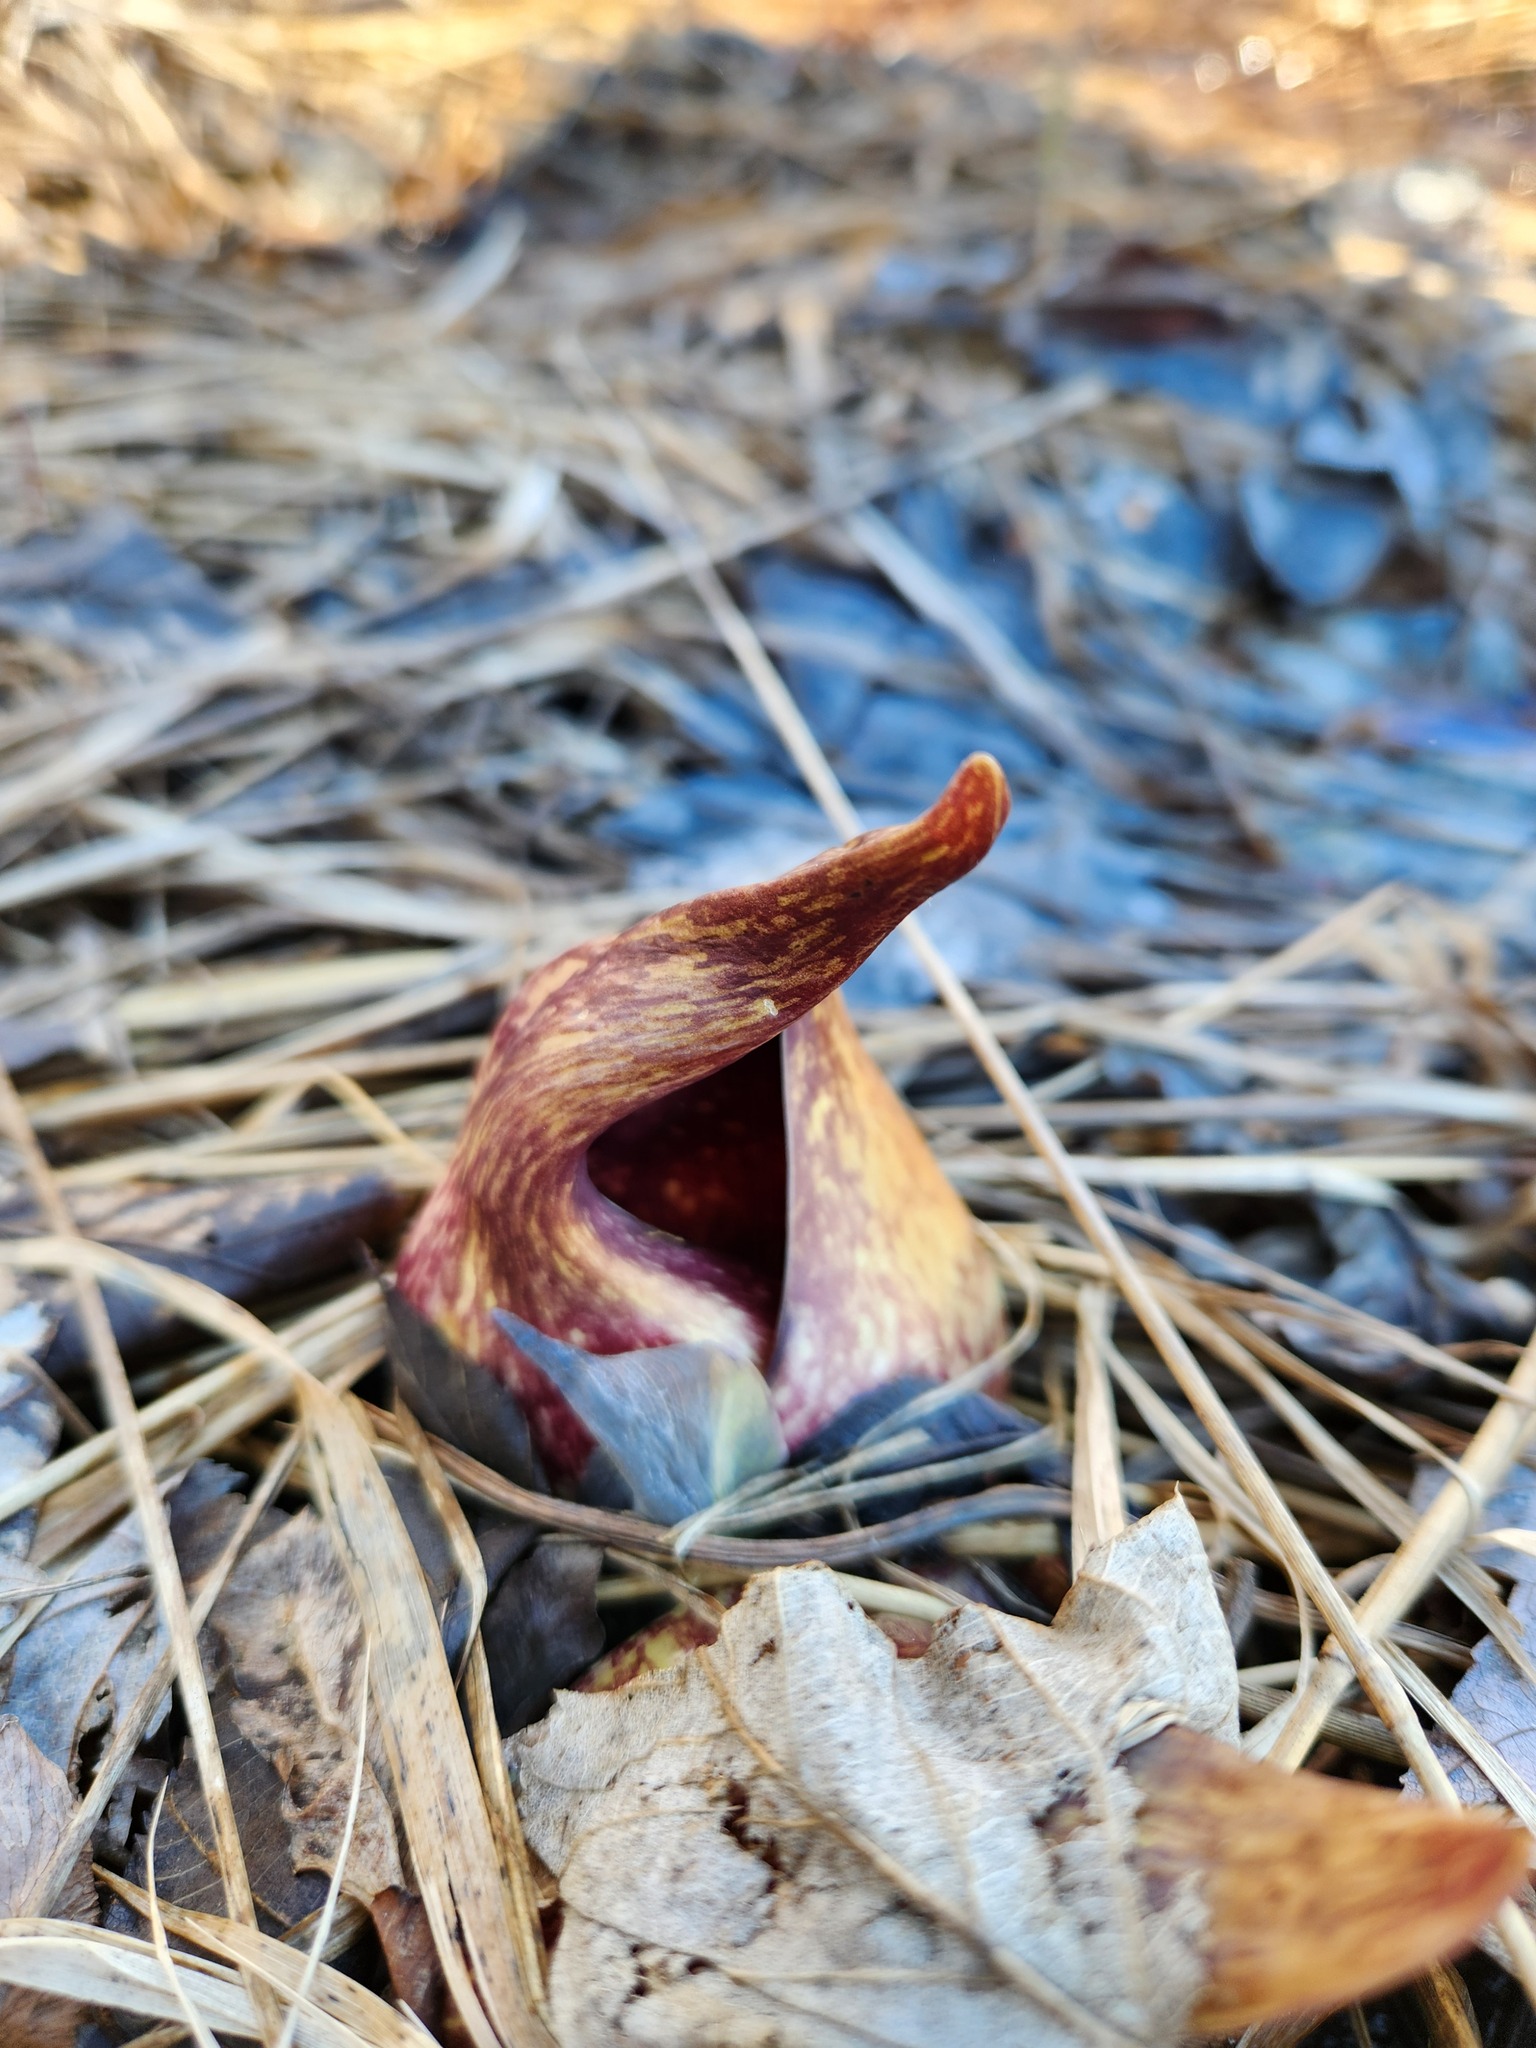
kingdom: Plantae
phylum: Tracheophyta
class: Liliopsida
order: Alismatales
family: Araceae
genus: Symplocarpus
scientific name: Symplocarpus foetidus
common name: Eastern skunk cabbage
